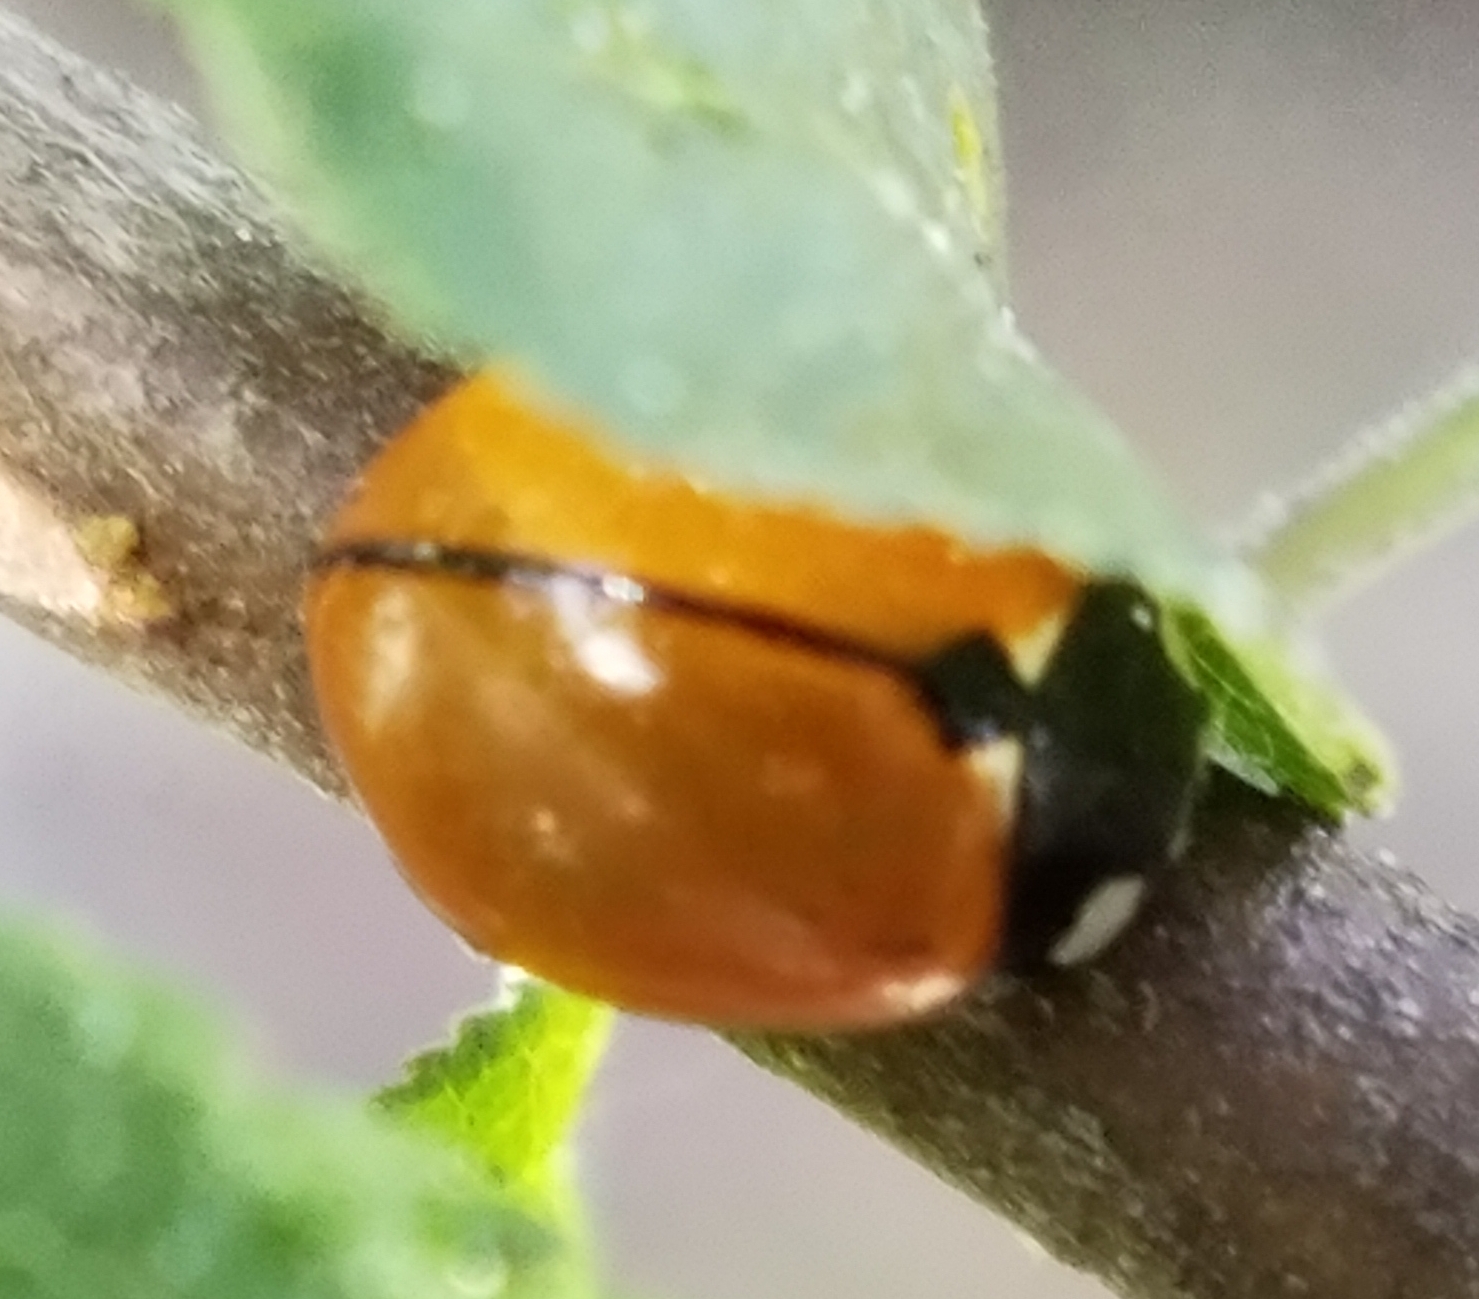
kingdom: Animalia
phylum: Arthropoda
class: Insecta
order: Coleoptera
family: Coccinellidae
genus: Coccinella
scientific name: Coccinella californica
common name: Lady beetle
